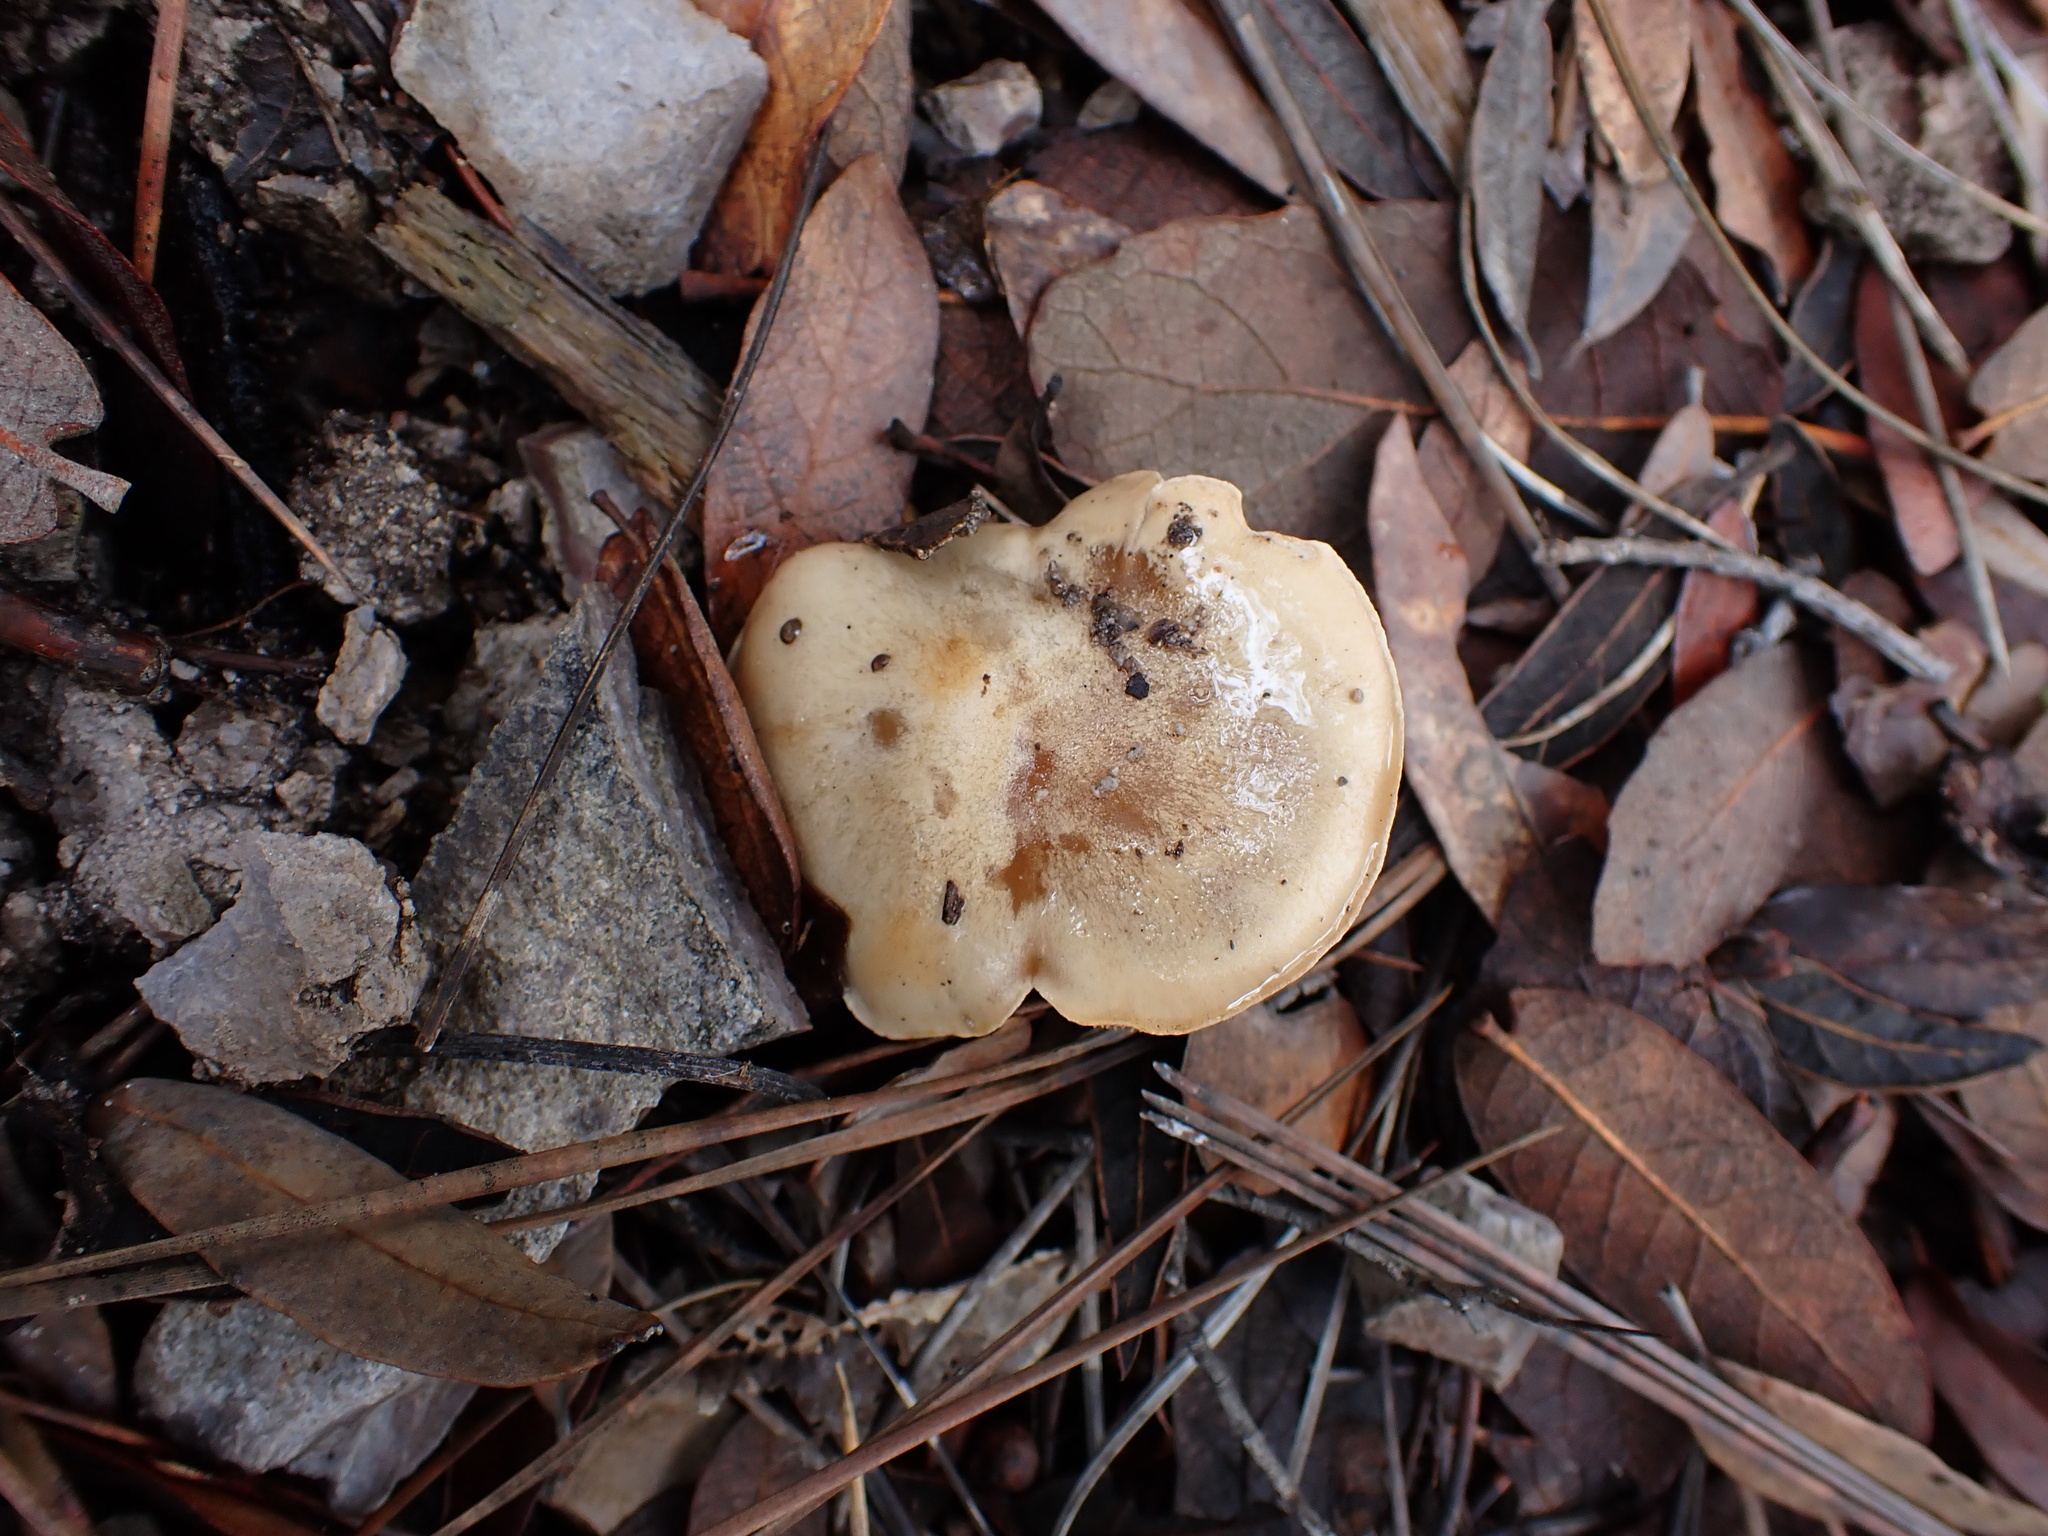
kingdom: Fungi
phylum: Basidiomycota
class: Agaricomycetes
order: Agaricales
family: Hymenogastraceae
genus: Hebeloma
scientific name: Hebeloma sordidum
